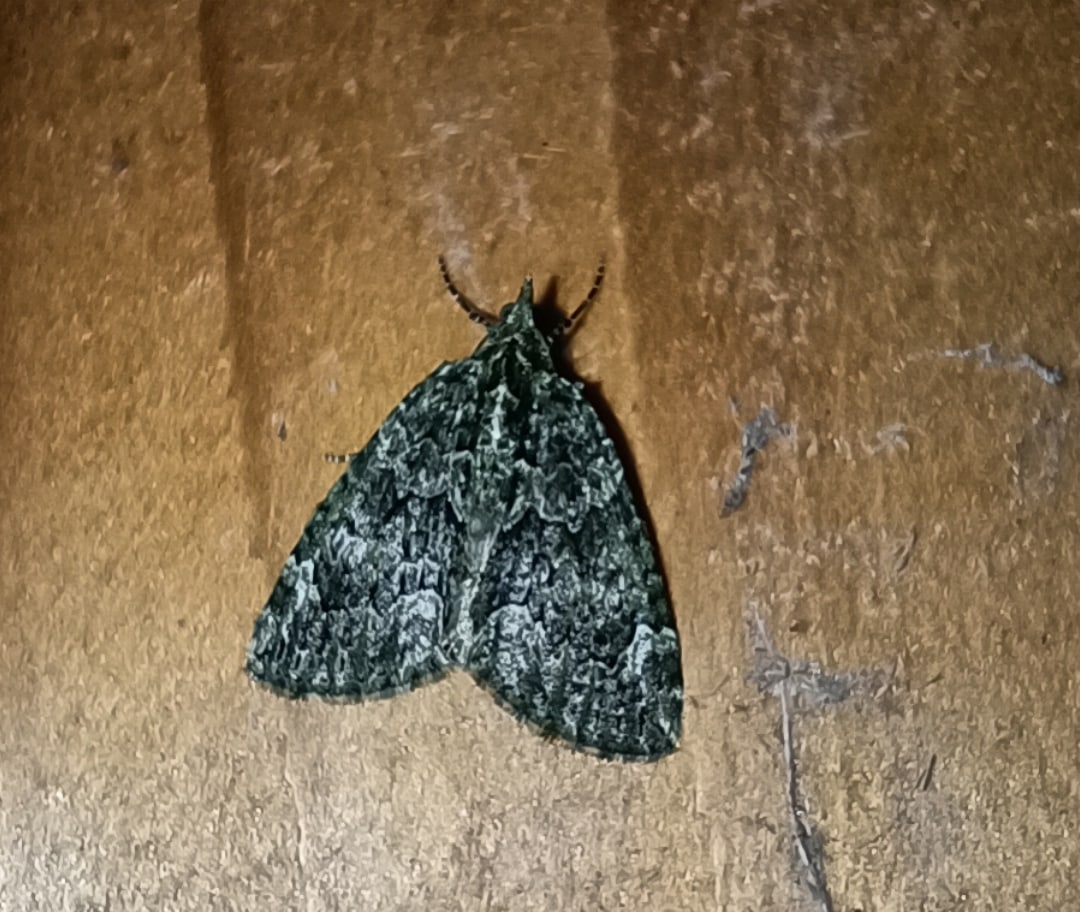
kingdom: Animalia
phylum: Arthropoda
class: Insecta
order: Lepidoptera
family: Geometridae
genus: Chloroclysta
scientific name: Chloroclysta siterata
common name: Red-green carpet
